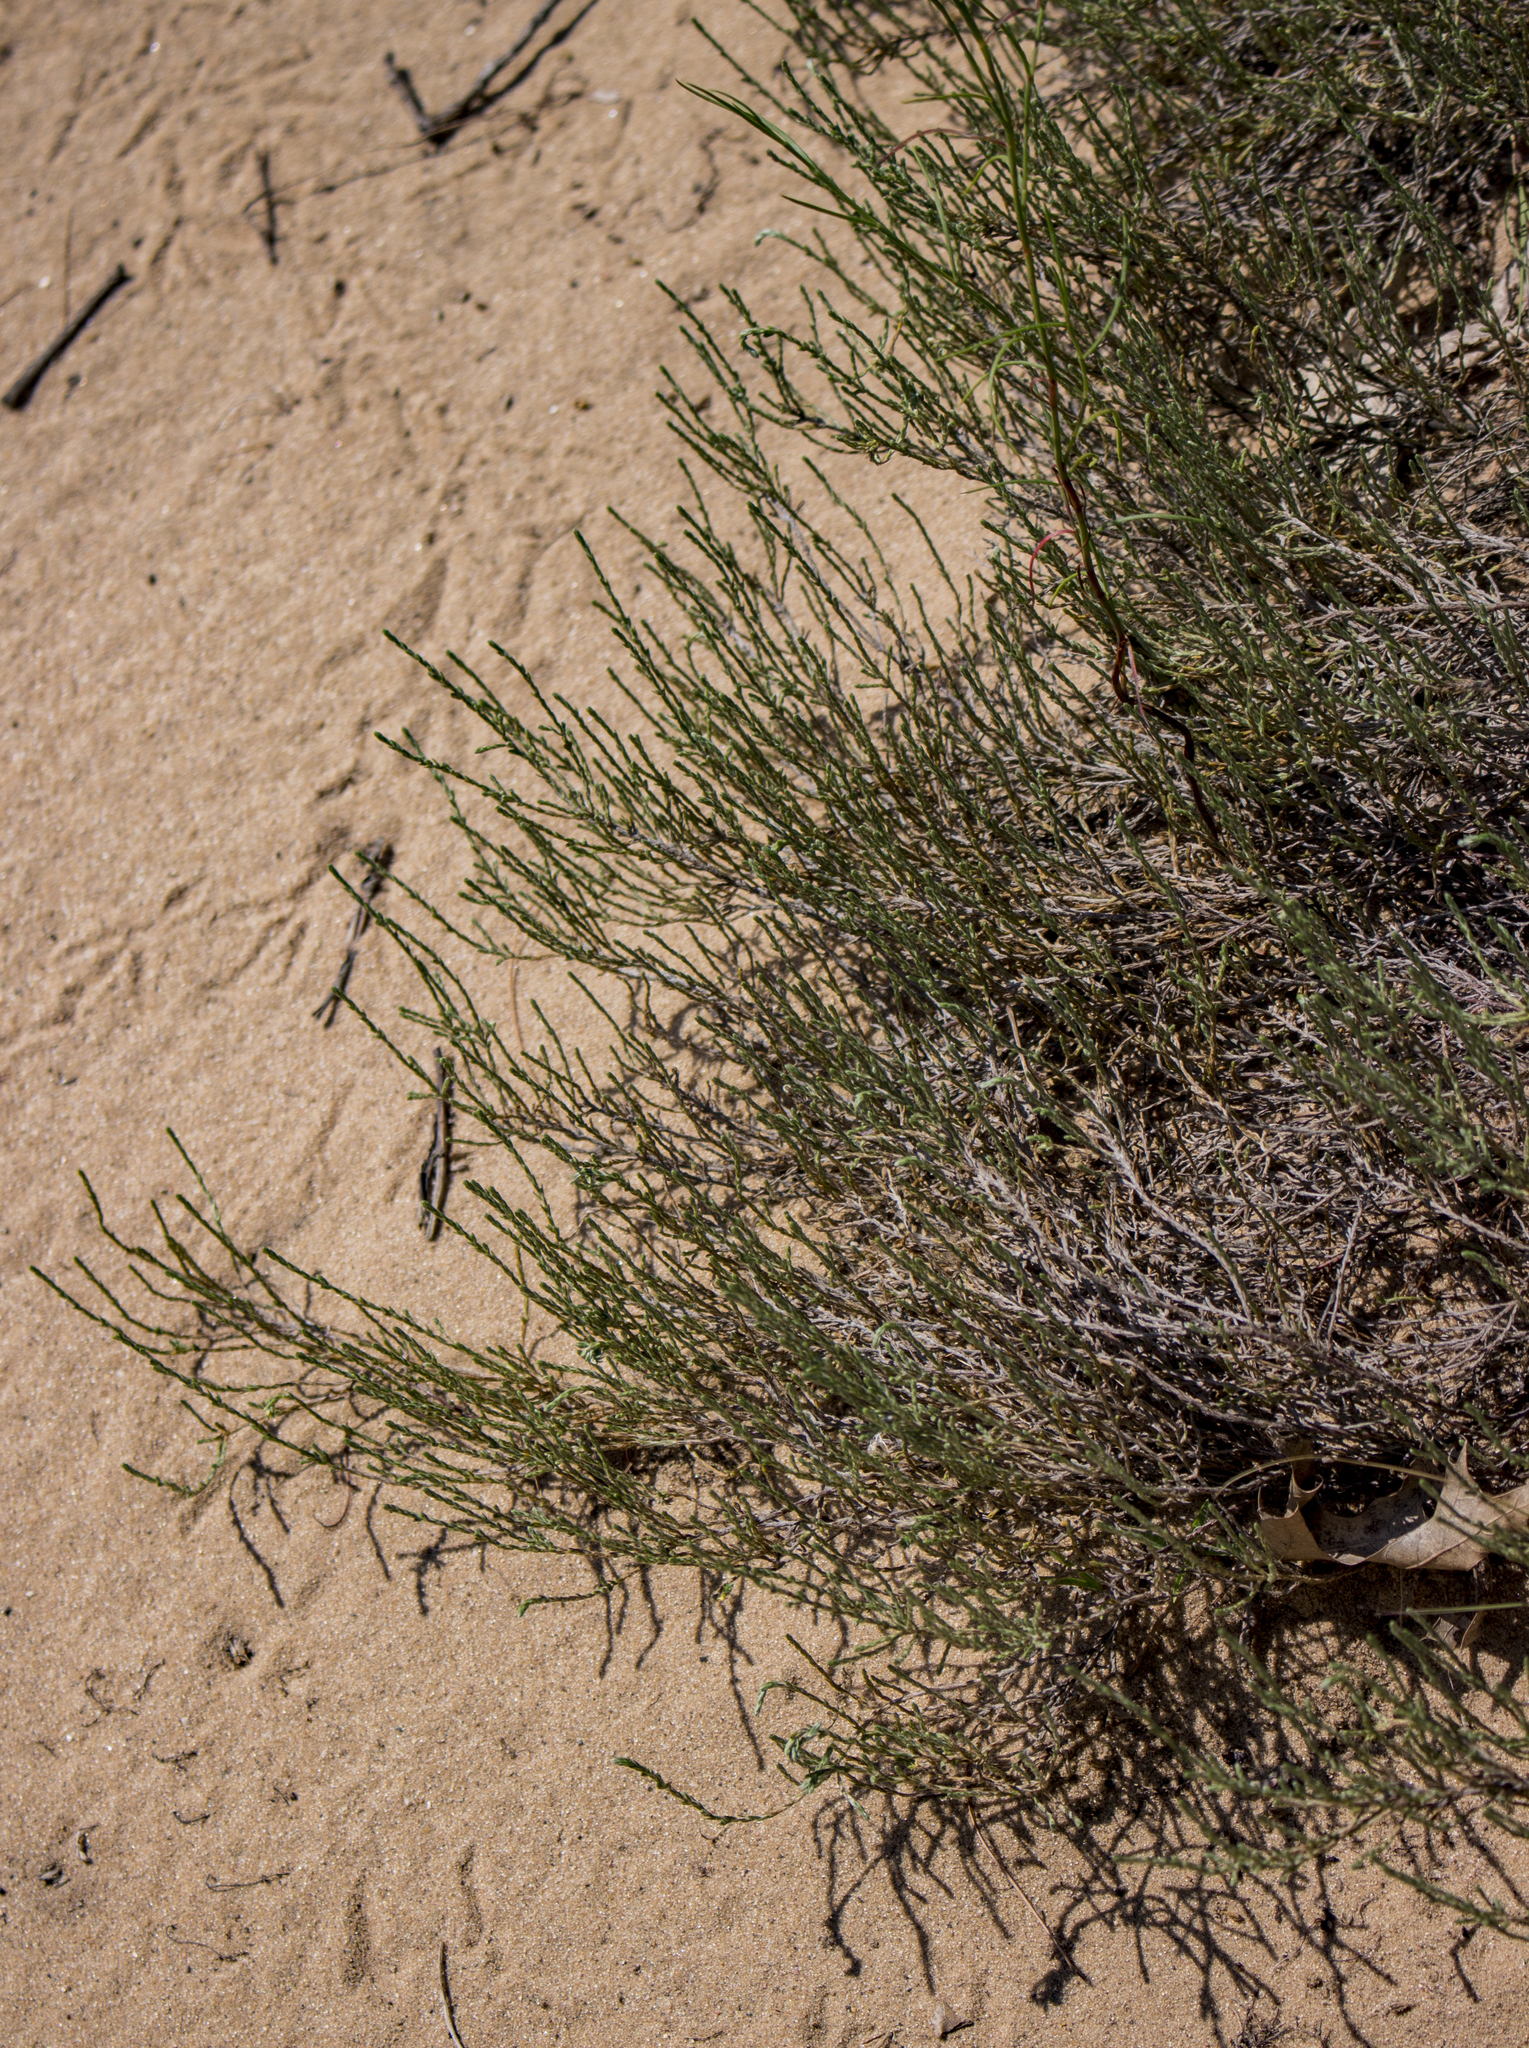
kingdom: Plantae
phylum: Tracheophyta
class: Magnoliopsida
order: Malvales
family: Cistaceae
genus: Hudsonia
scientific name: Hudsonia tomentosa
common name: Beach-heath
